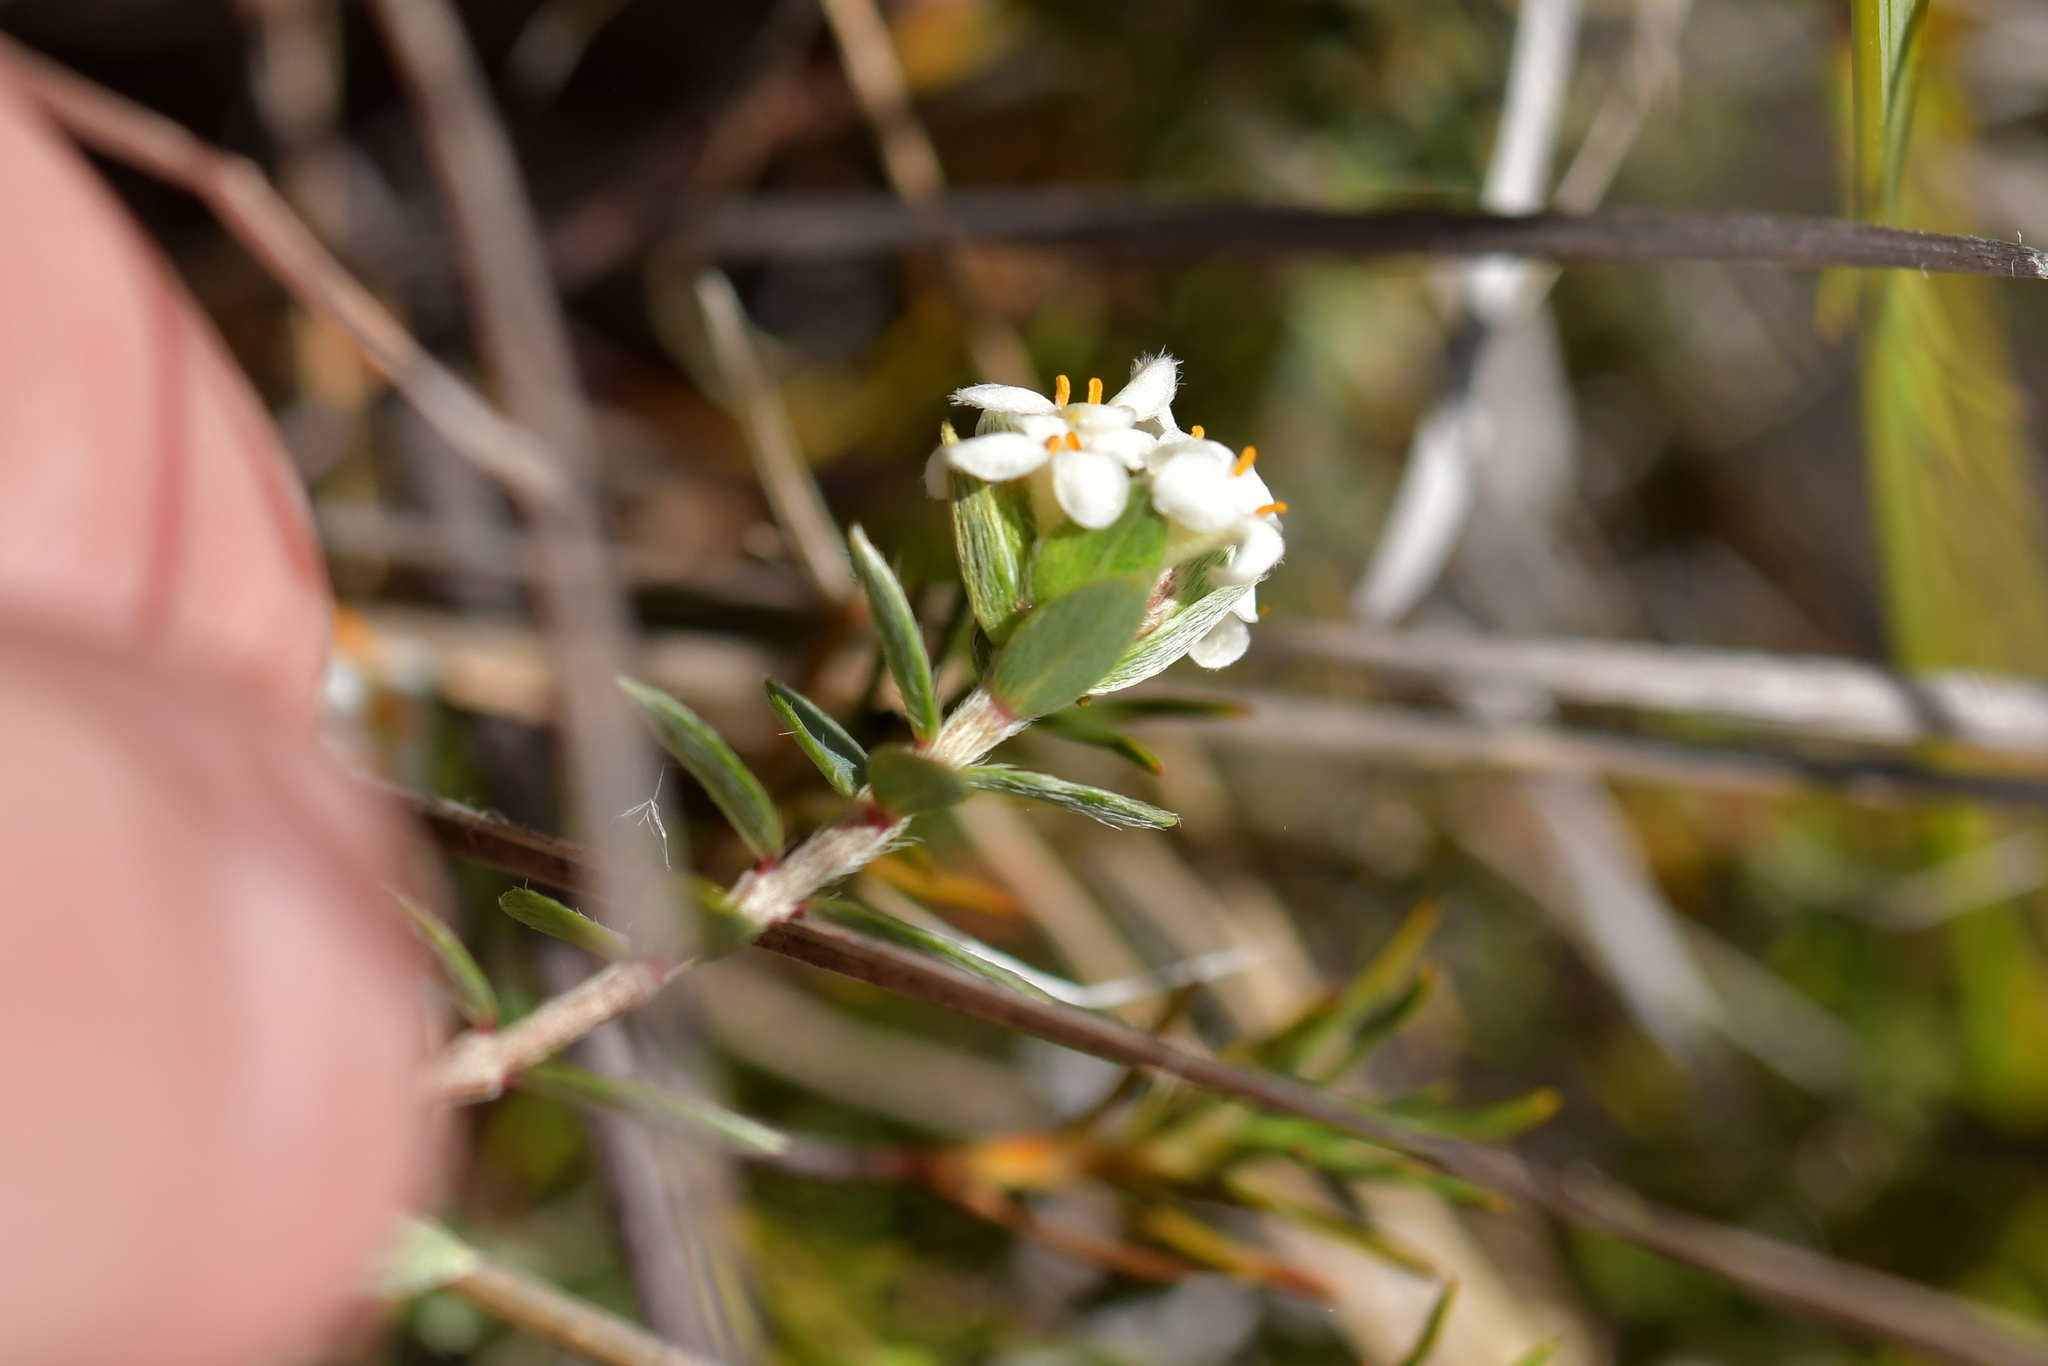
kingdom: Plantae
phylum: Tracheophyta
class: Magnoliopsida
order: Malvales
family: Thymelaeaceae
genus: Pimelea
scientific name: Pimelea oreophila
